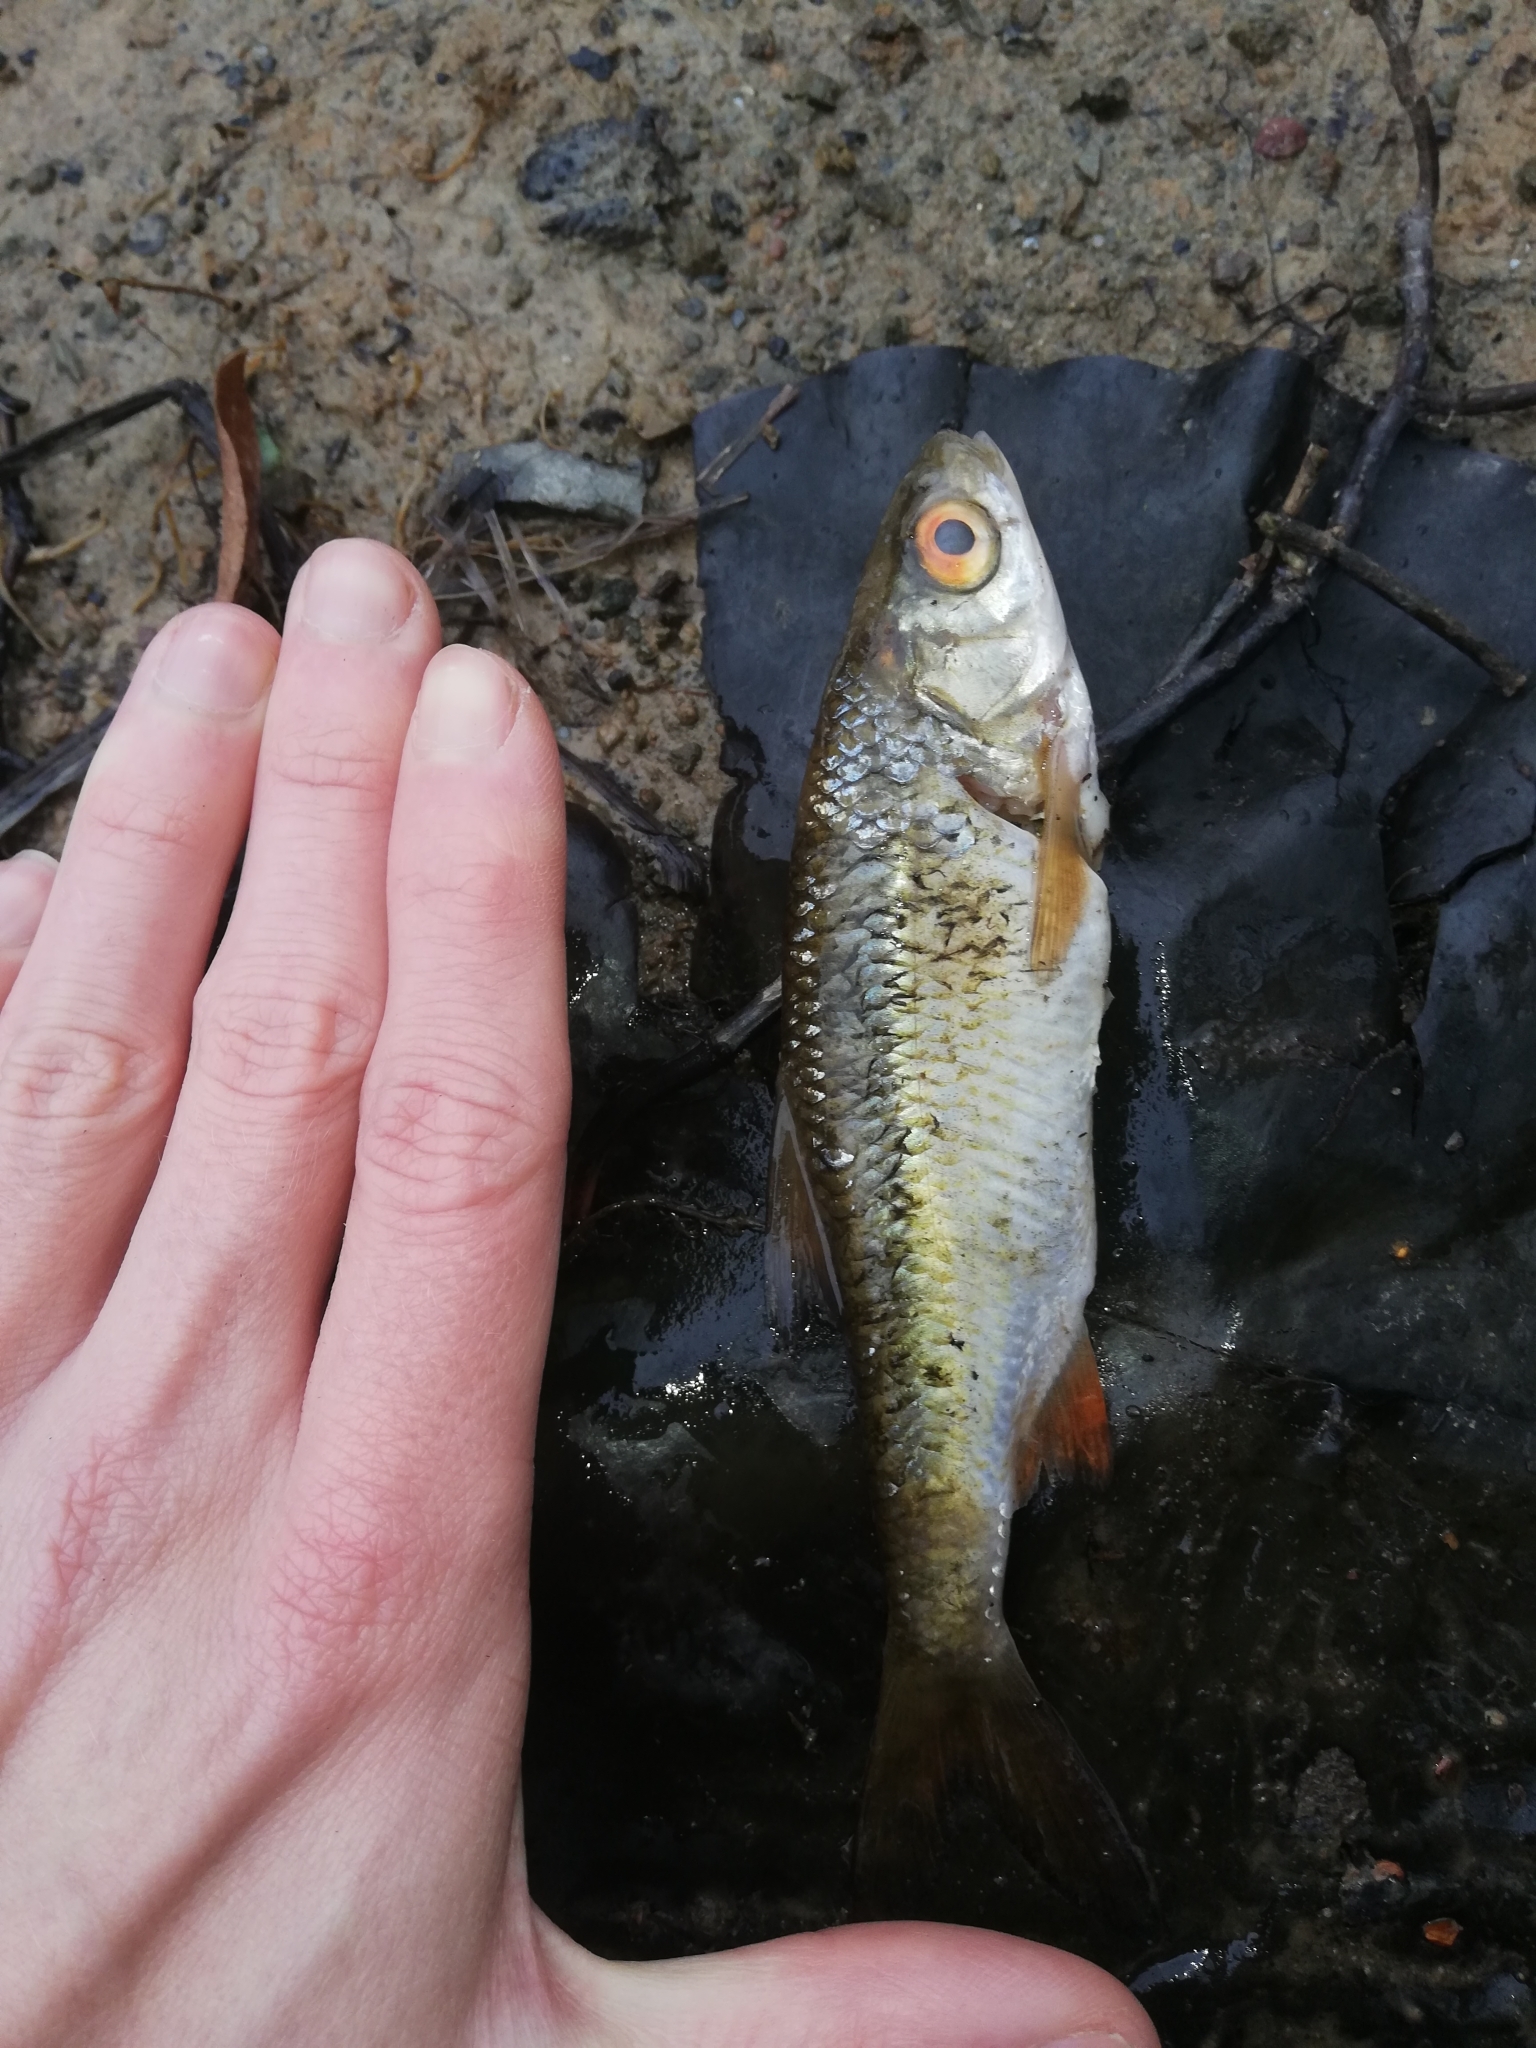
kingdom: Animalia
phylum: Chordata
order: Cypriniformes
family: Cyprinidae
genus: Rutilus
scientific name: Rutilus rutilus
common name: Roach
